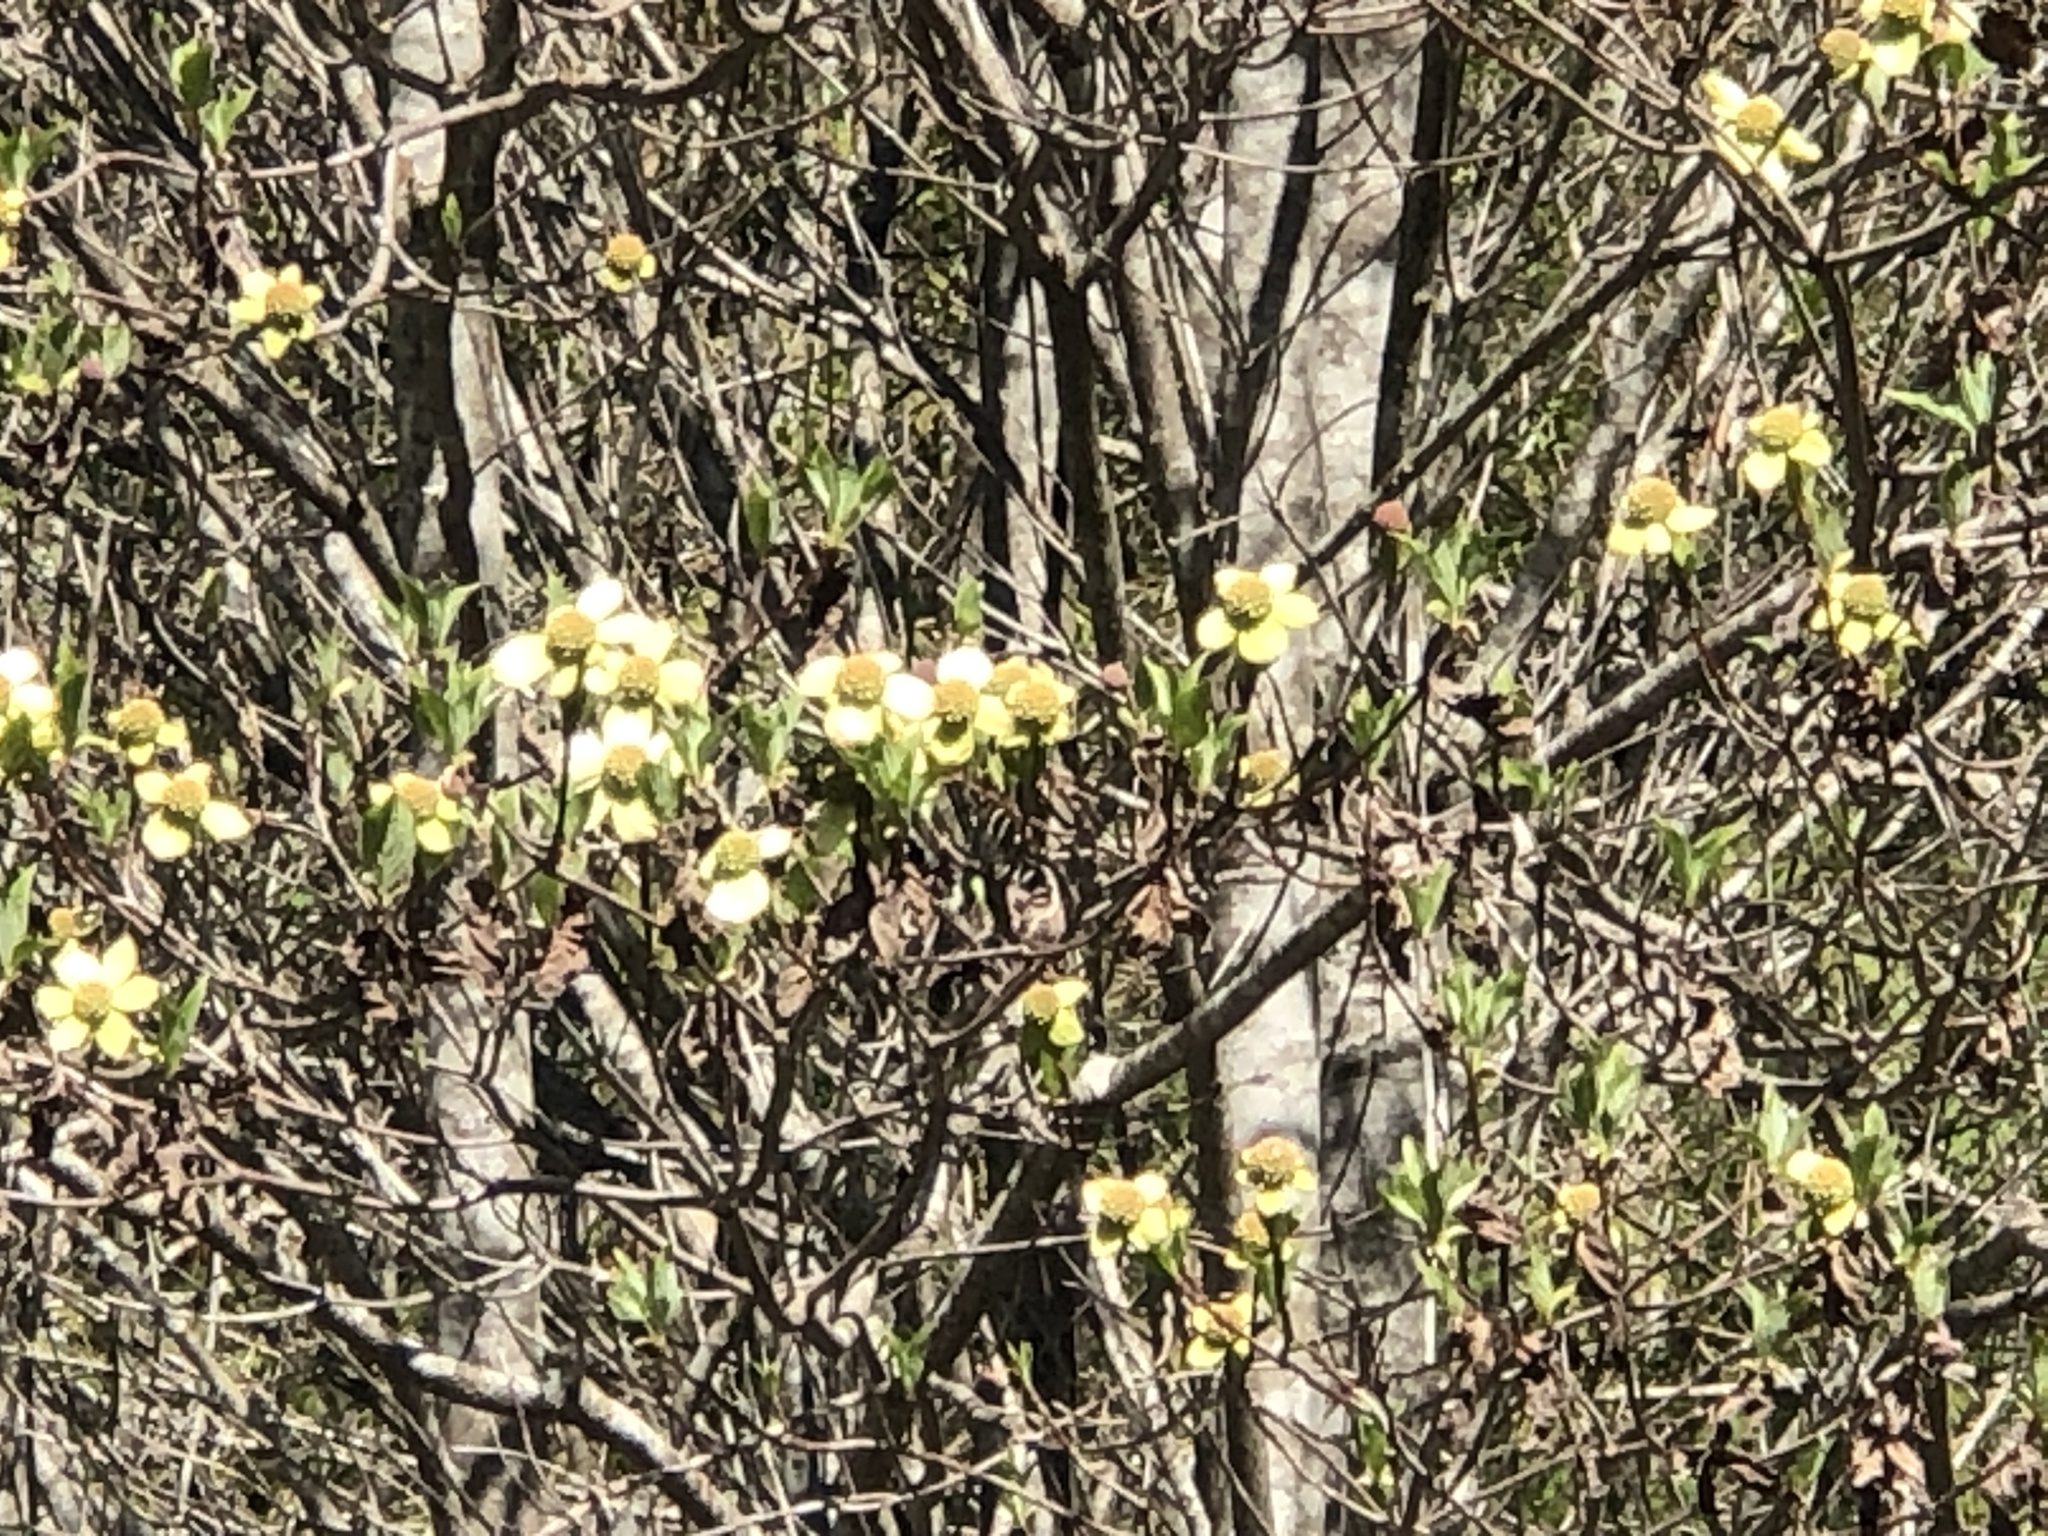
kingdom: Plantae
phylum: Tracheophyta
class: Magnoliopsida
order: Cornales
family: Cornaceae
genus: Cornus
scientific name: Cornus nuttallii
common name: Pacific dogwood
